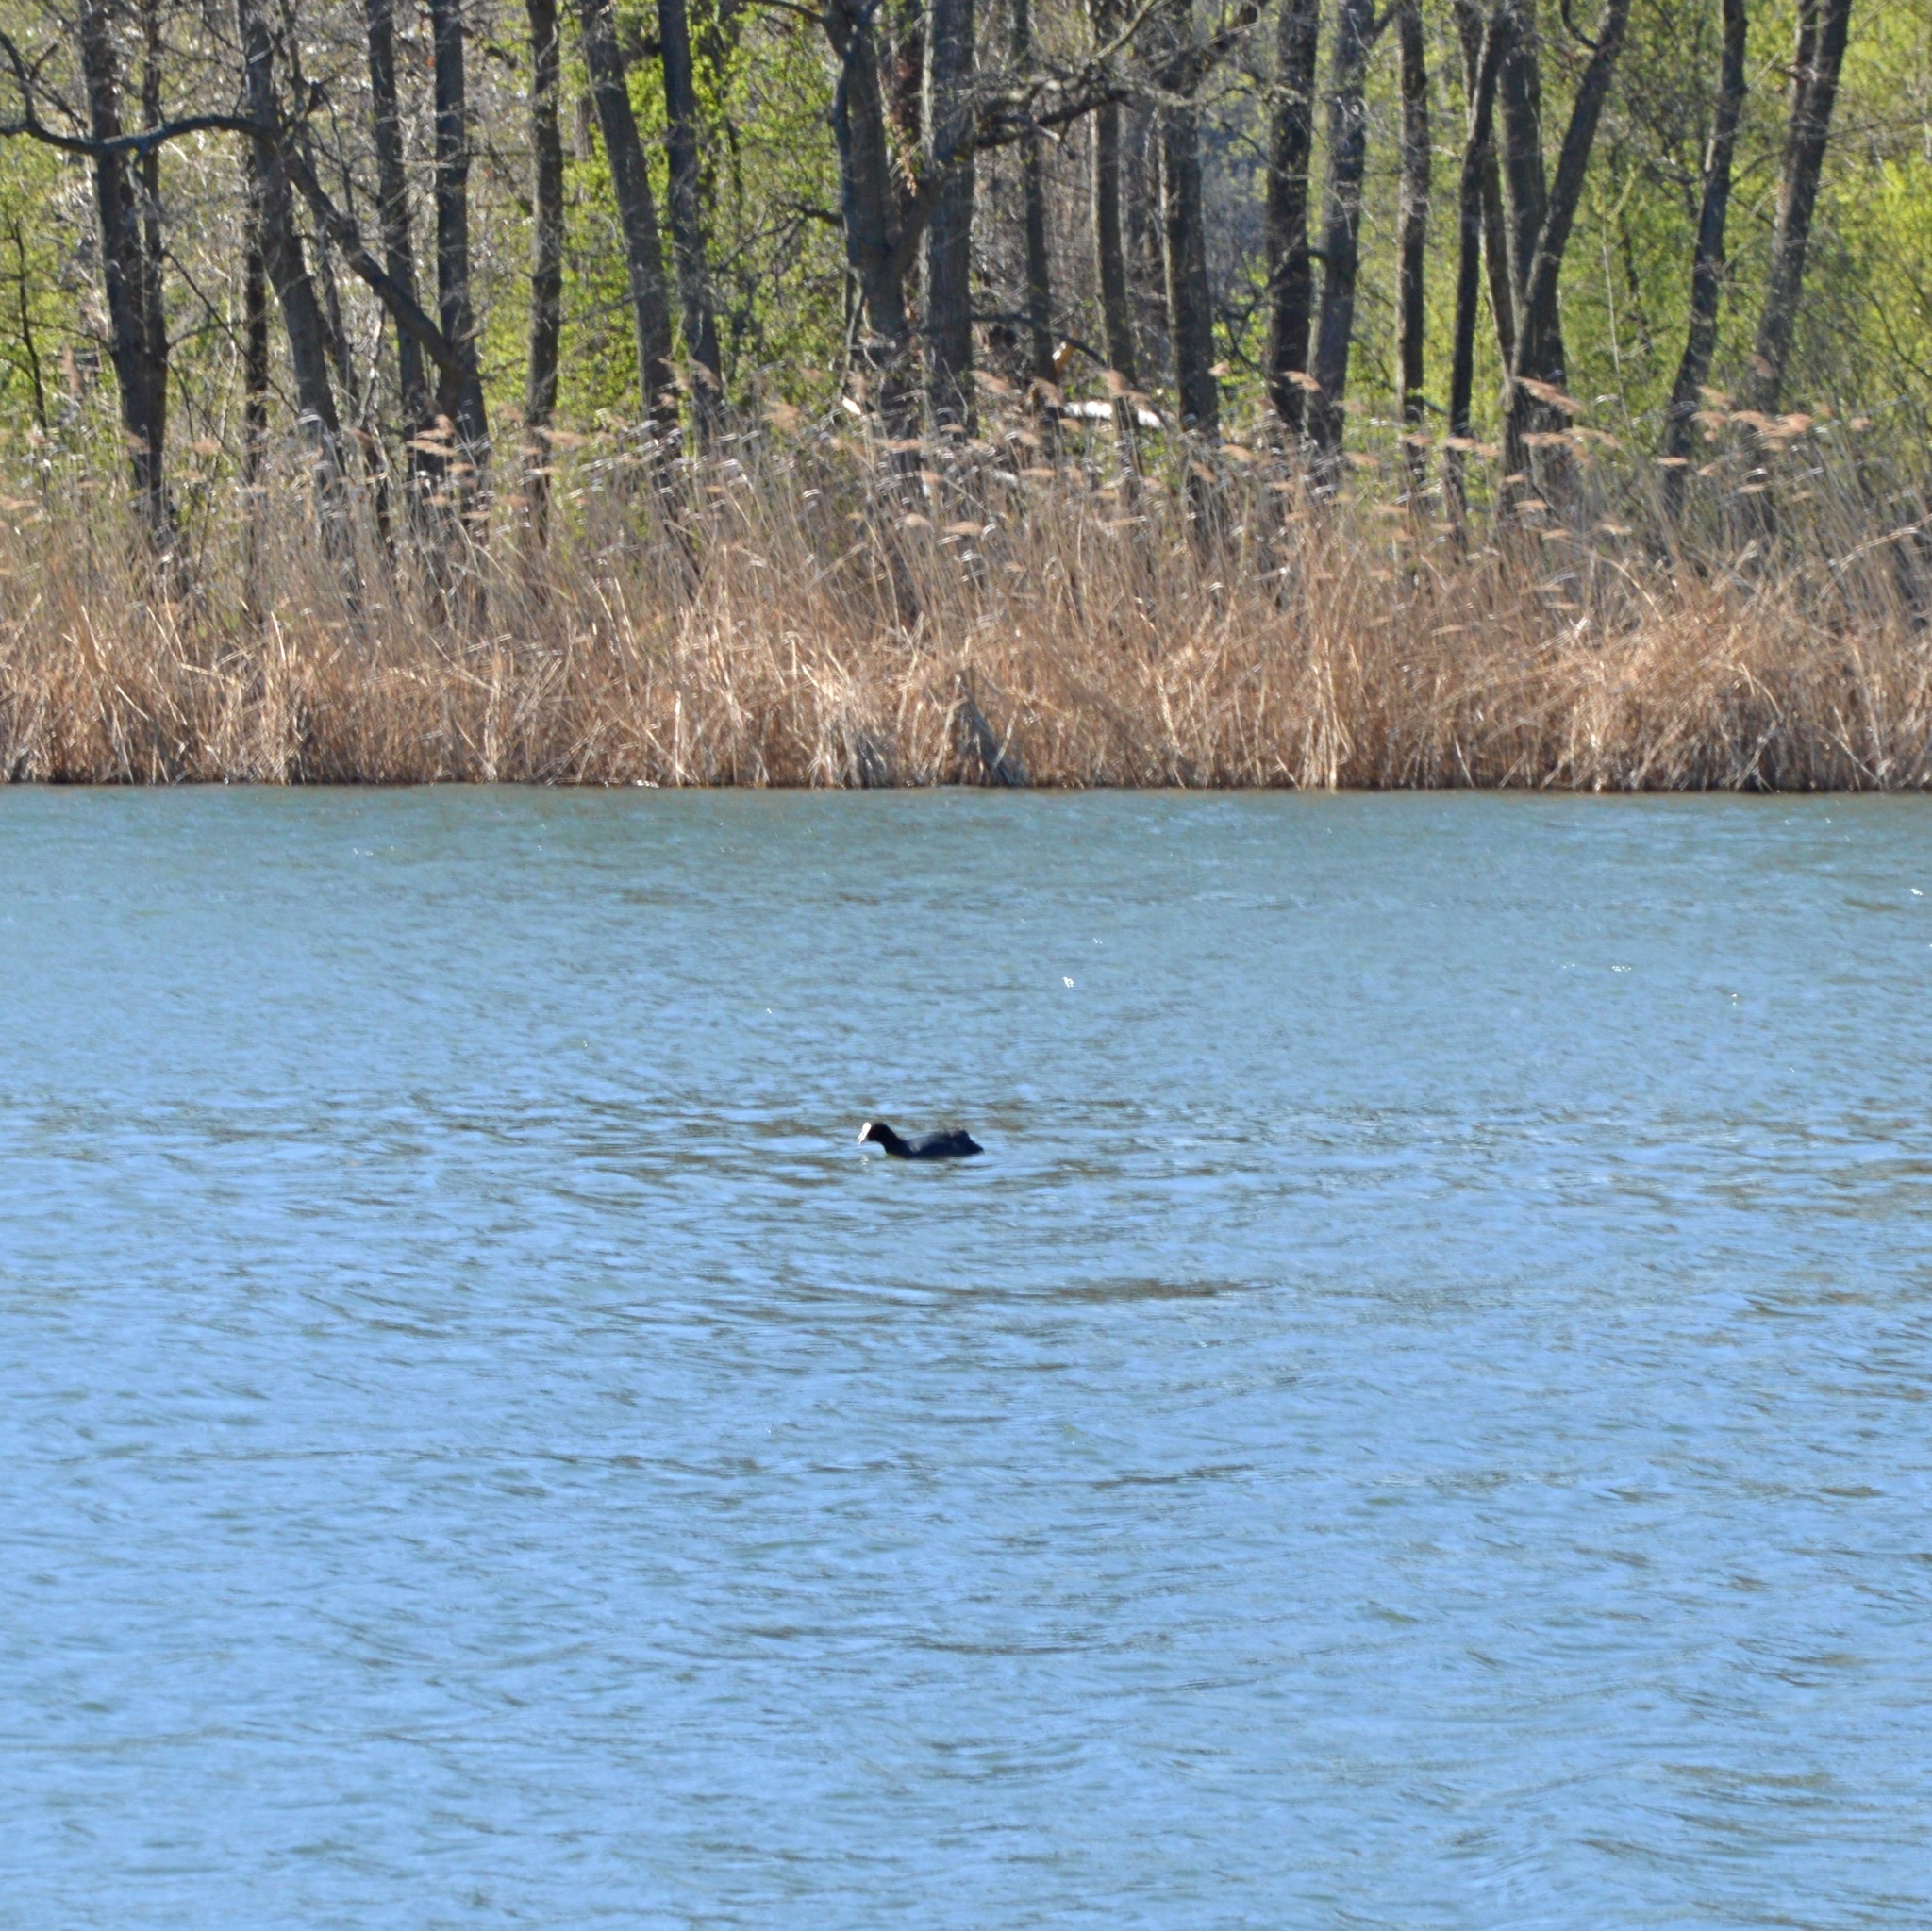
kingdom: Animalia
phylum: Chordata
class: Aves
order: Gruiformes
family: Rallidae
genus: Fulica
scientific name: Fulica atra
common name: Eurasian coot
